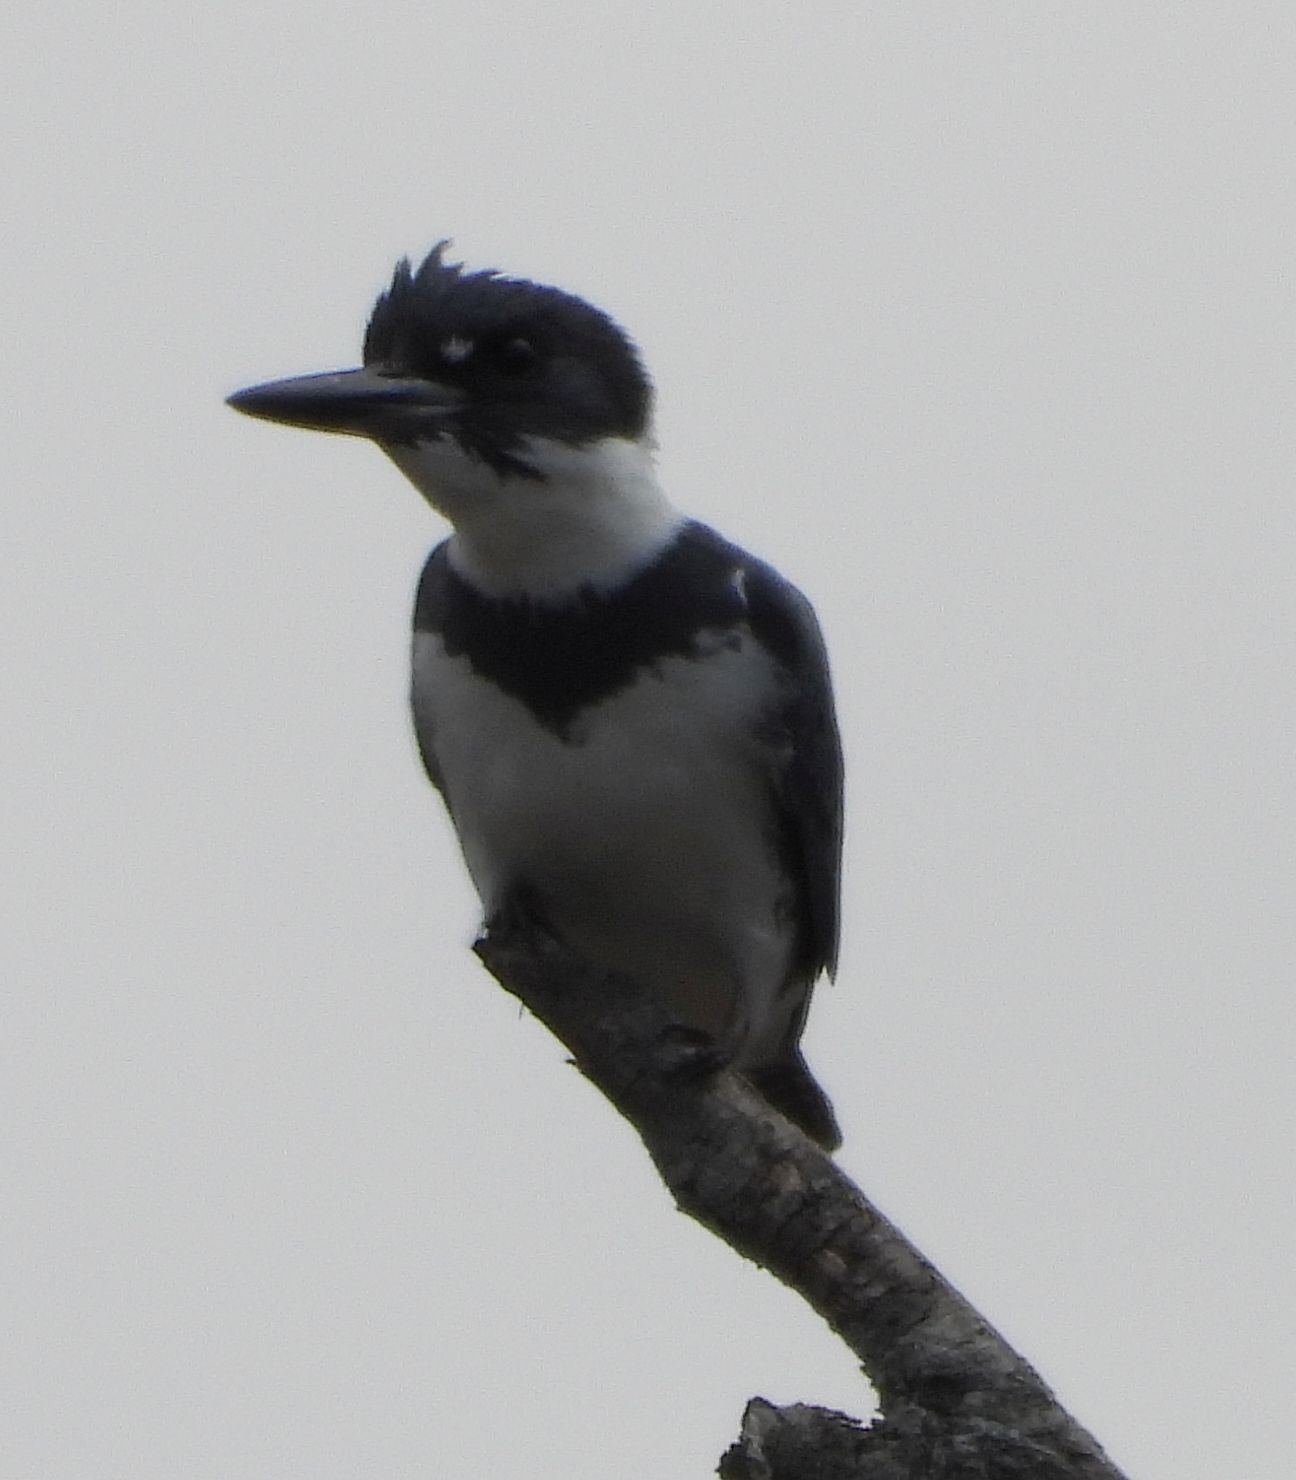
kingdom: Animalia
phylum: Chordata
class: Aves
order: Coraciiformes
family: Alcedinidae
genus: Megaceryle
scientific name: Megaceryle alcyon
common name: Belted kingfisher
